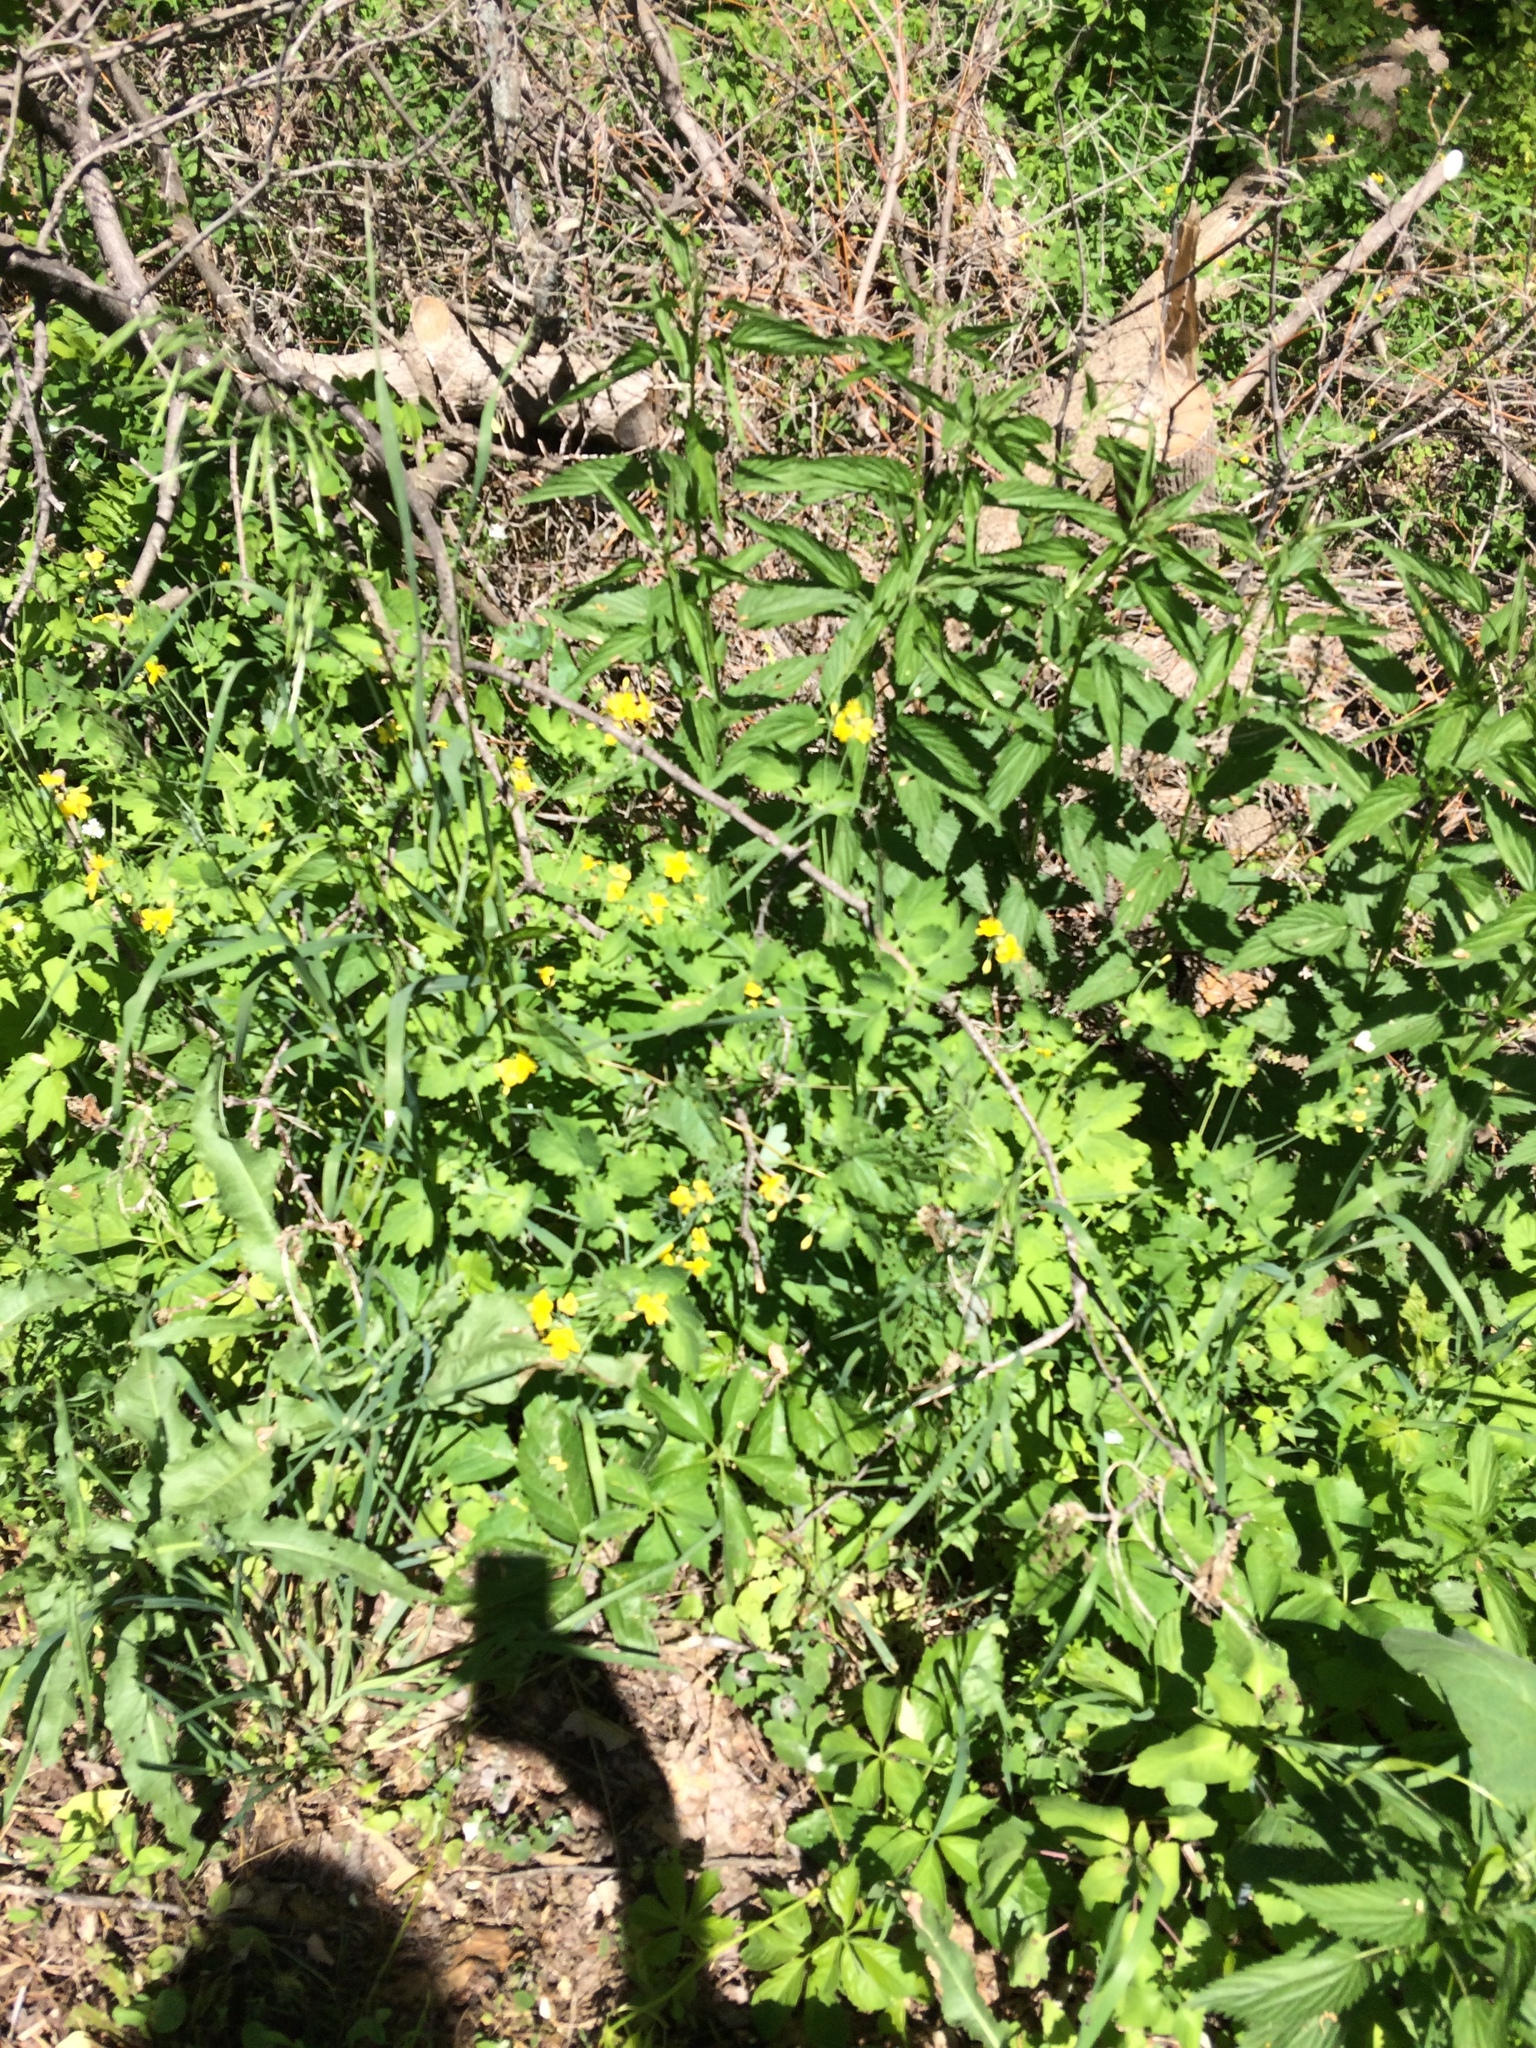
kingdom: Plantae
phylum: Tracheophyta
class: Magnoliopsida
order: Ranunculales
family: Papaveraceae
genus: Chelidonium
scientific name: Chelidonium majus
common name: Greater celandine
